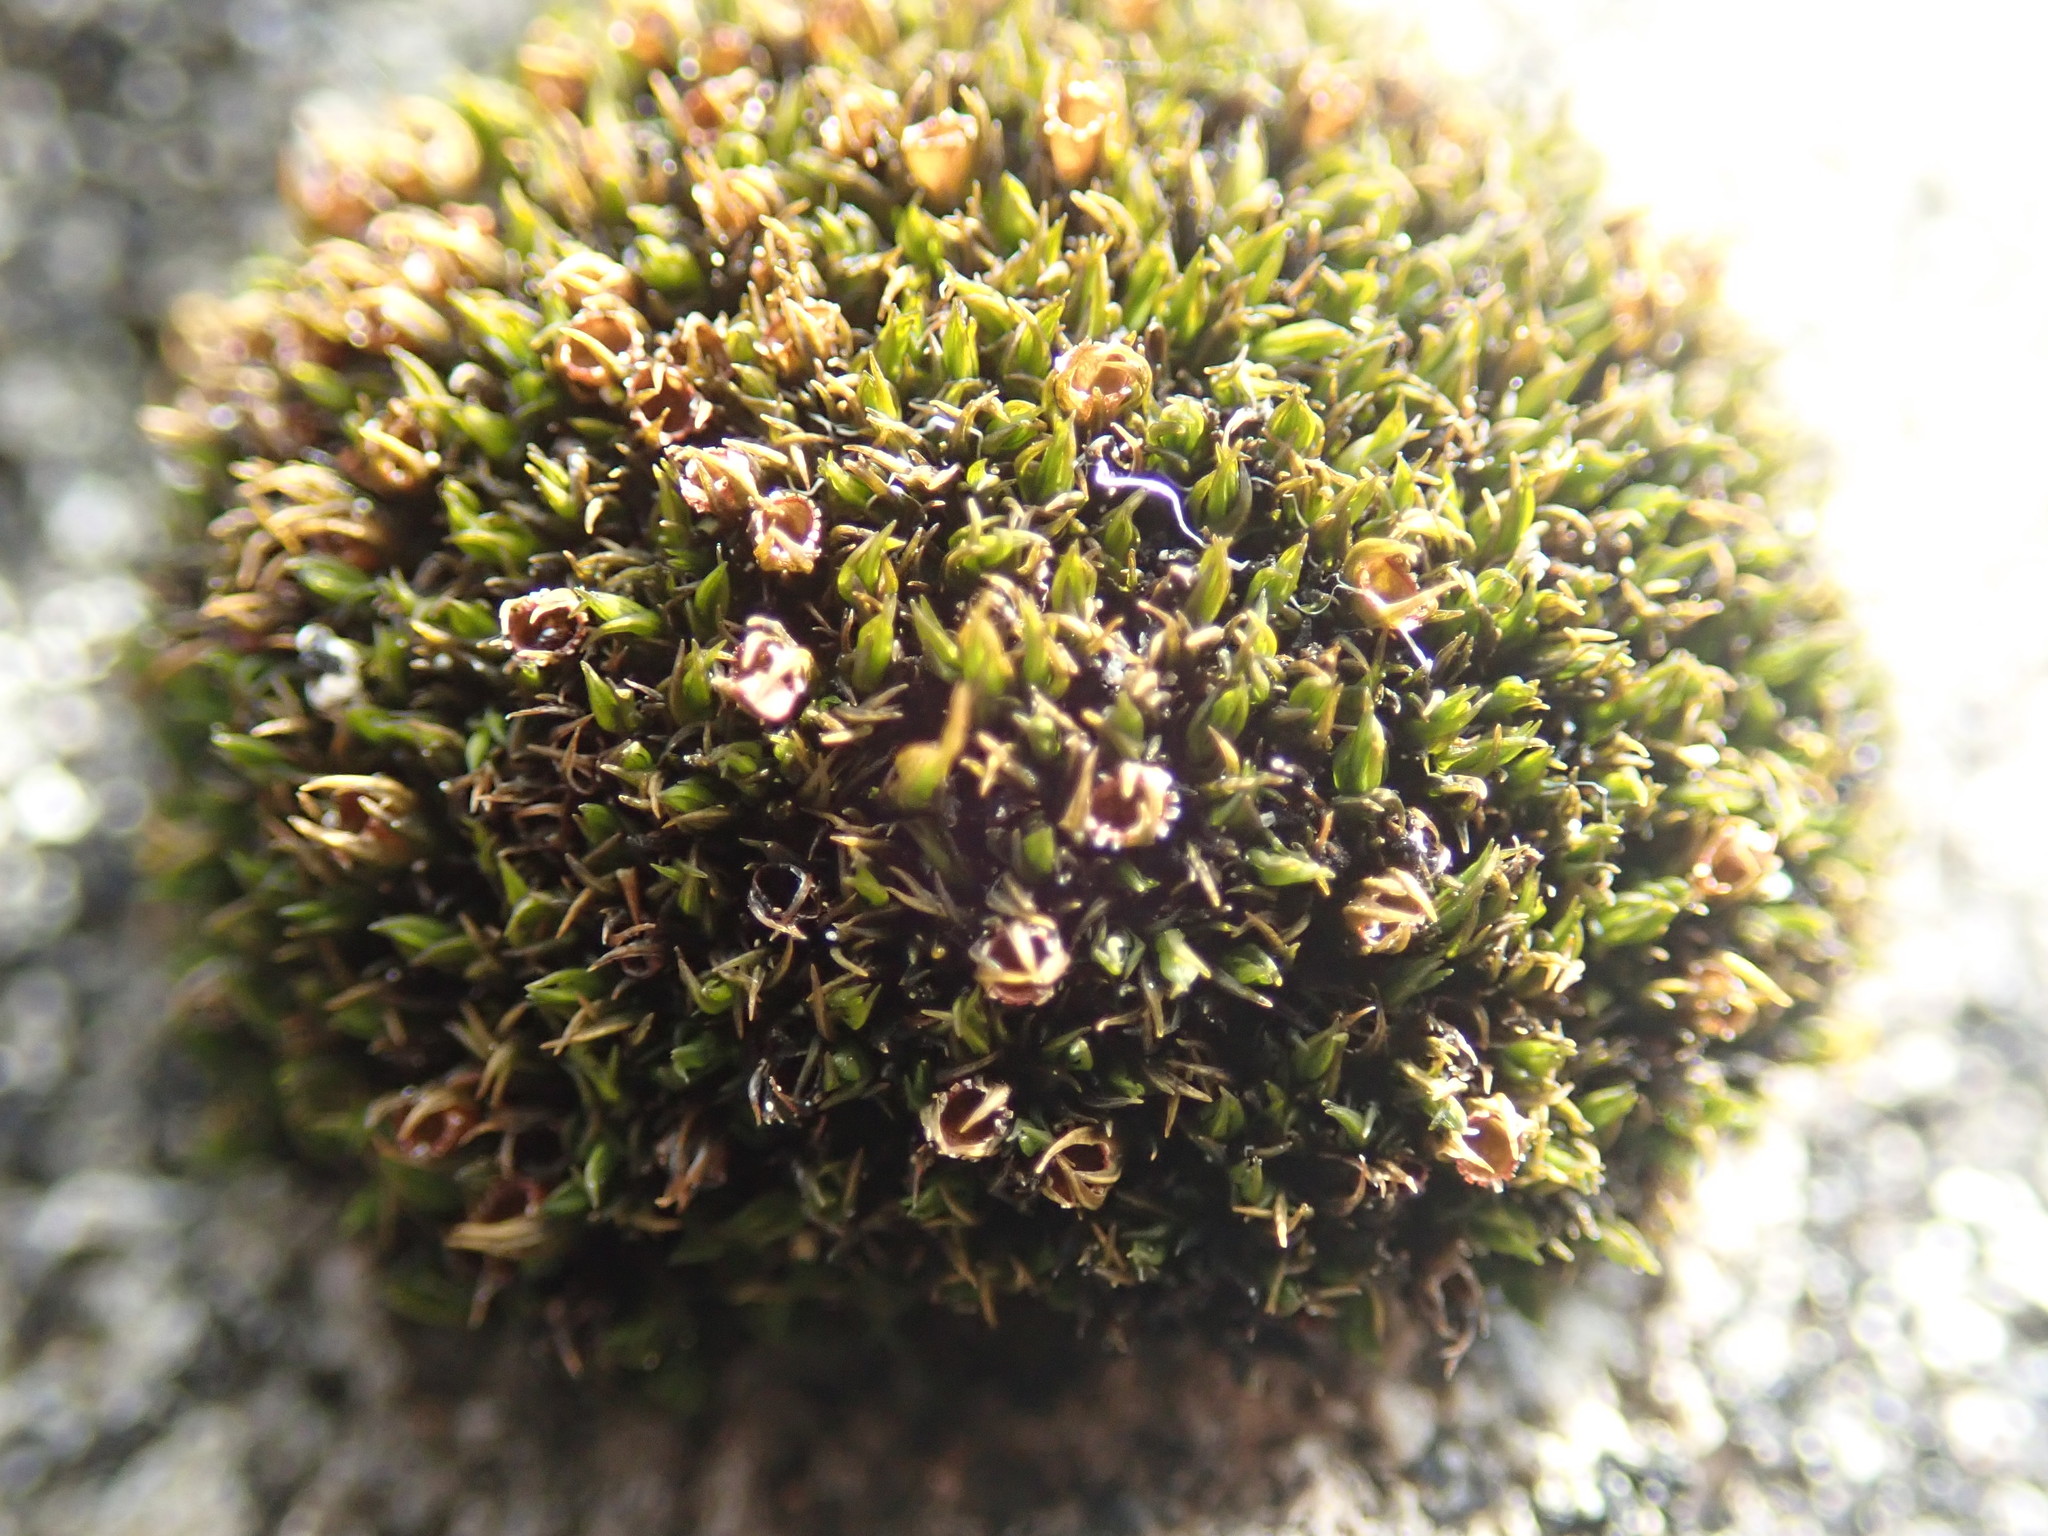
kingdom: Plantae
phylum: Bryophyta
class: Bryopsida
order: Grimmiales
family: Grimmiaceae
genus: Schistidium
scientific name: Schistidium maritimum
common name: Seaside bloom moss
